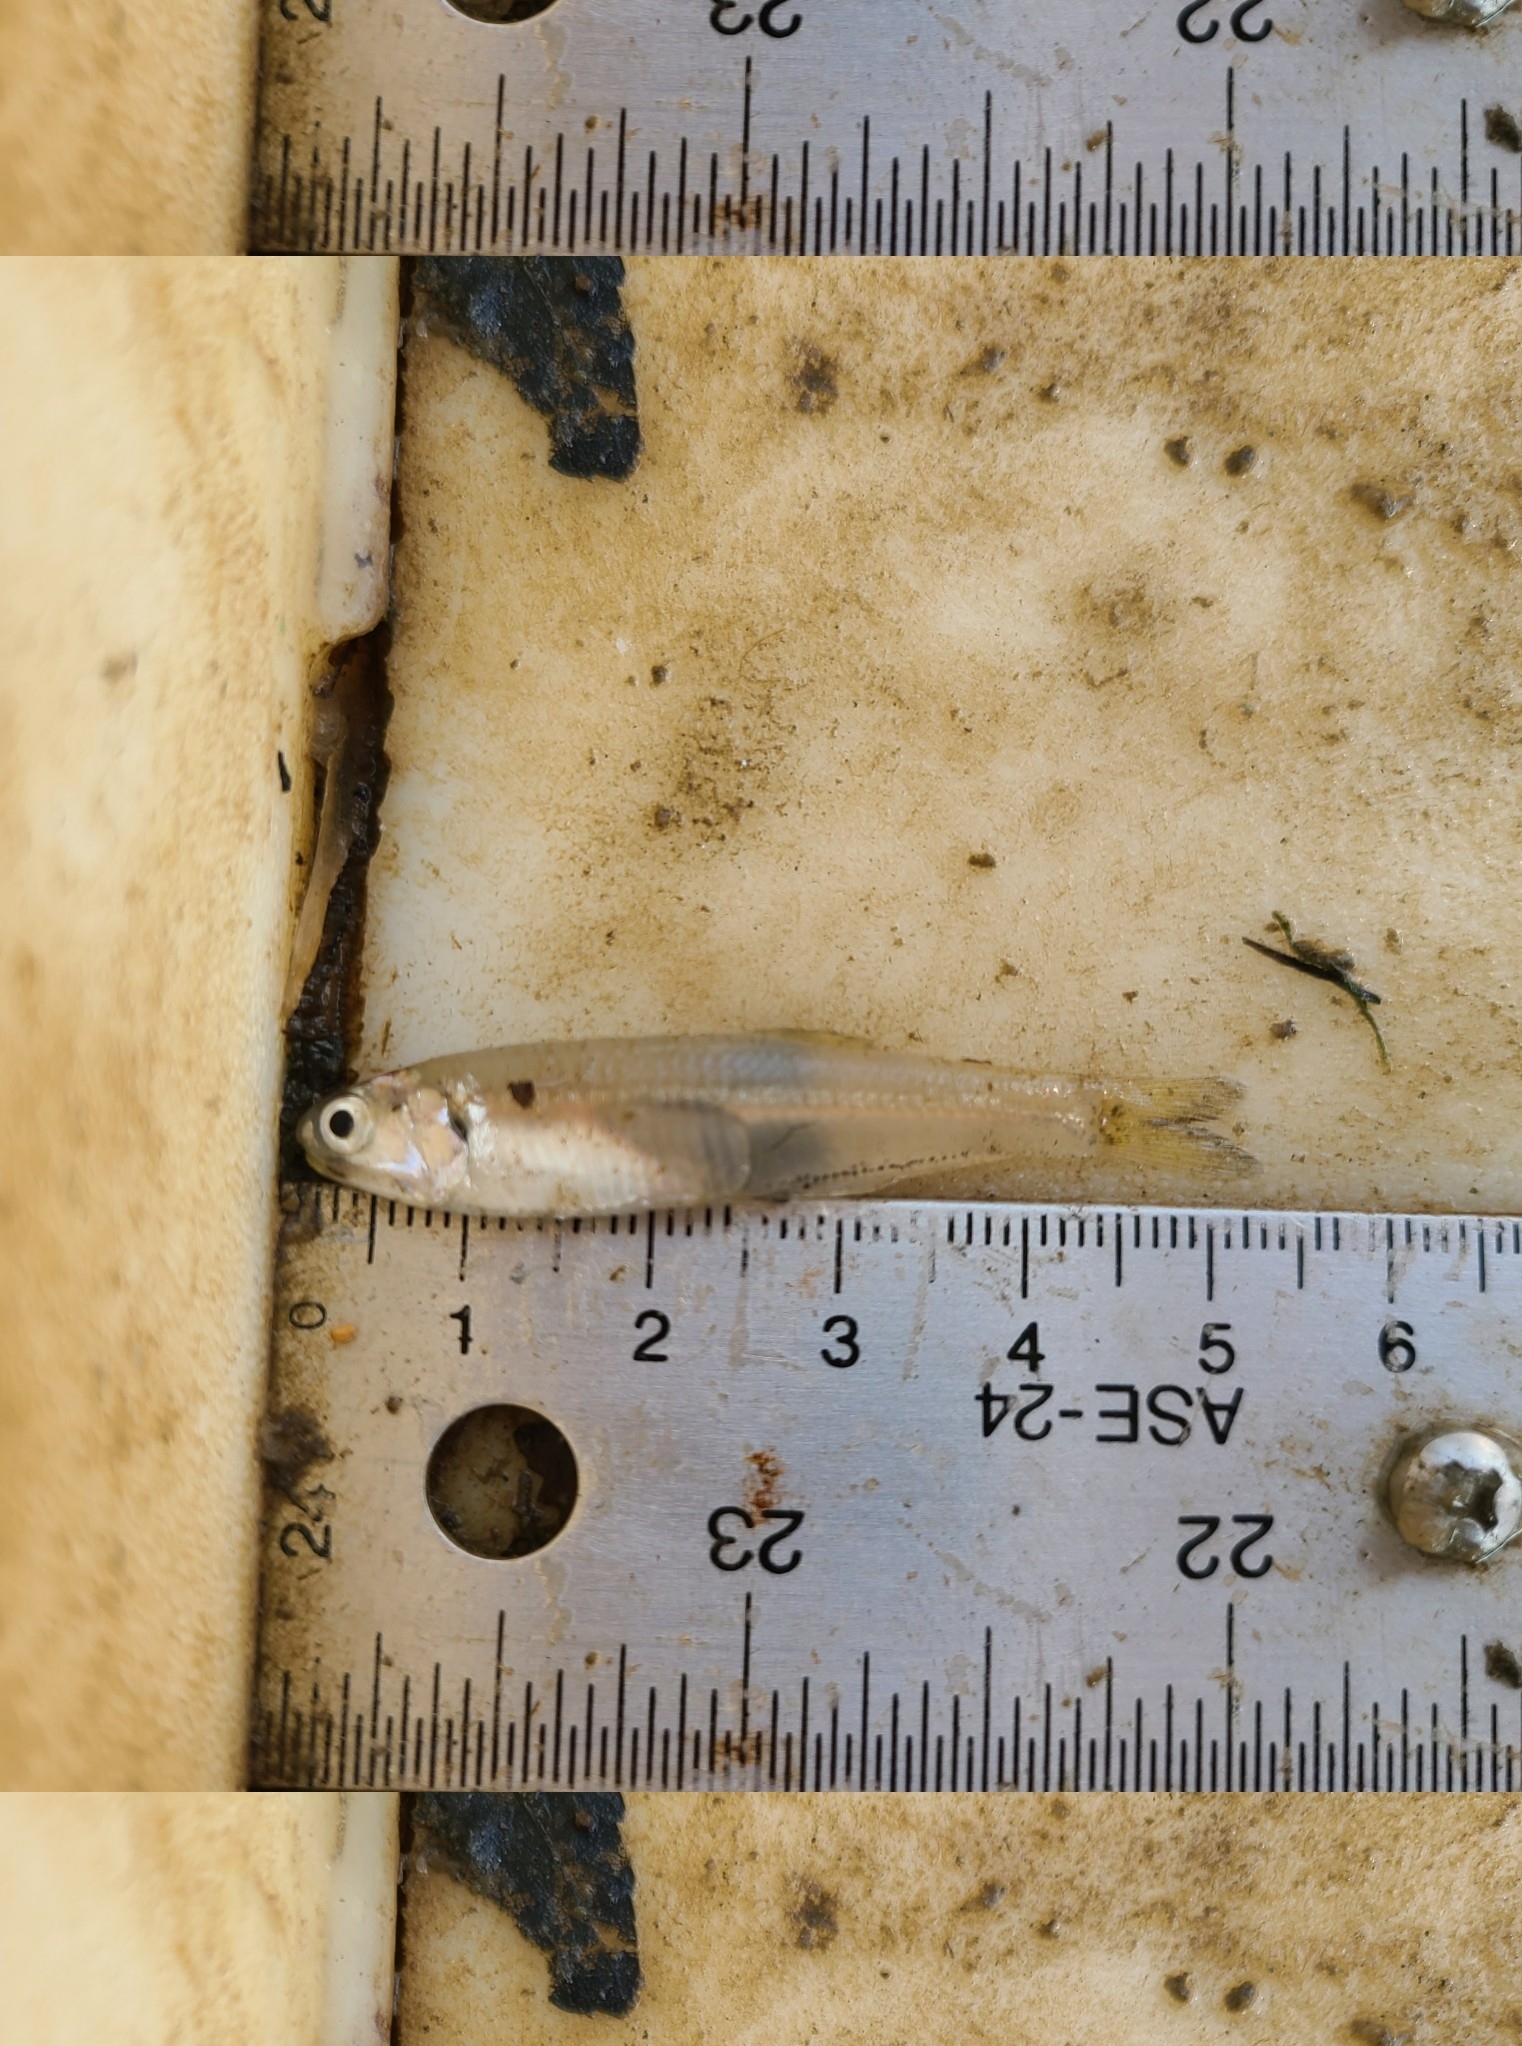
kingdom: Animalia
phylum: Chordata
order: Clupeiformes
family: Engraulidae
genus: Anchoa
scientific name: Anchoa mitchilli
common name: Bay anchovy
